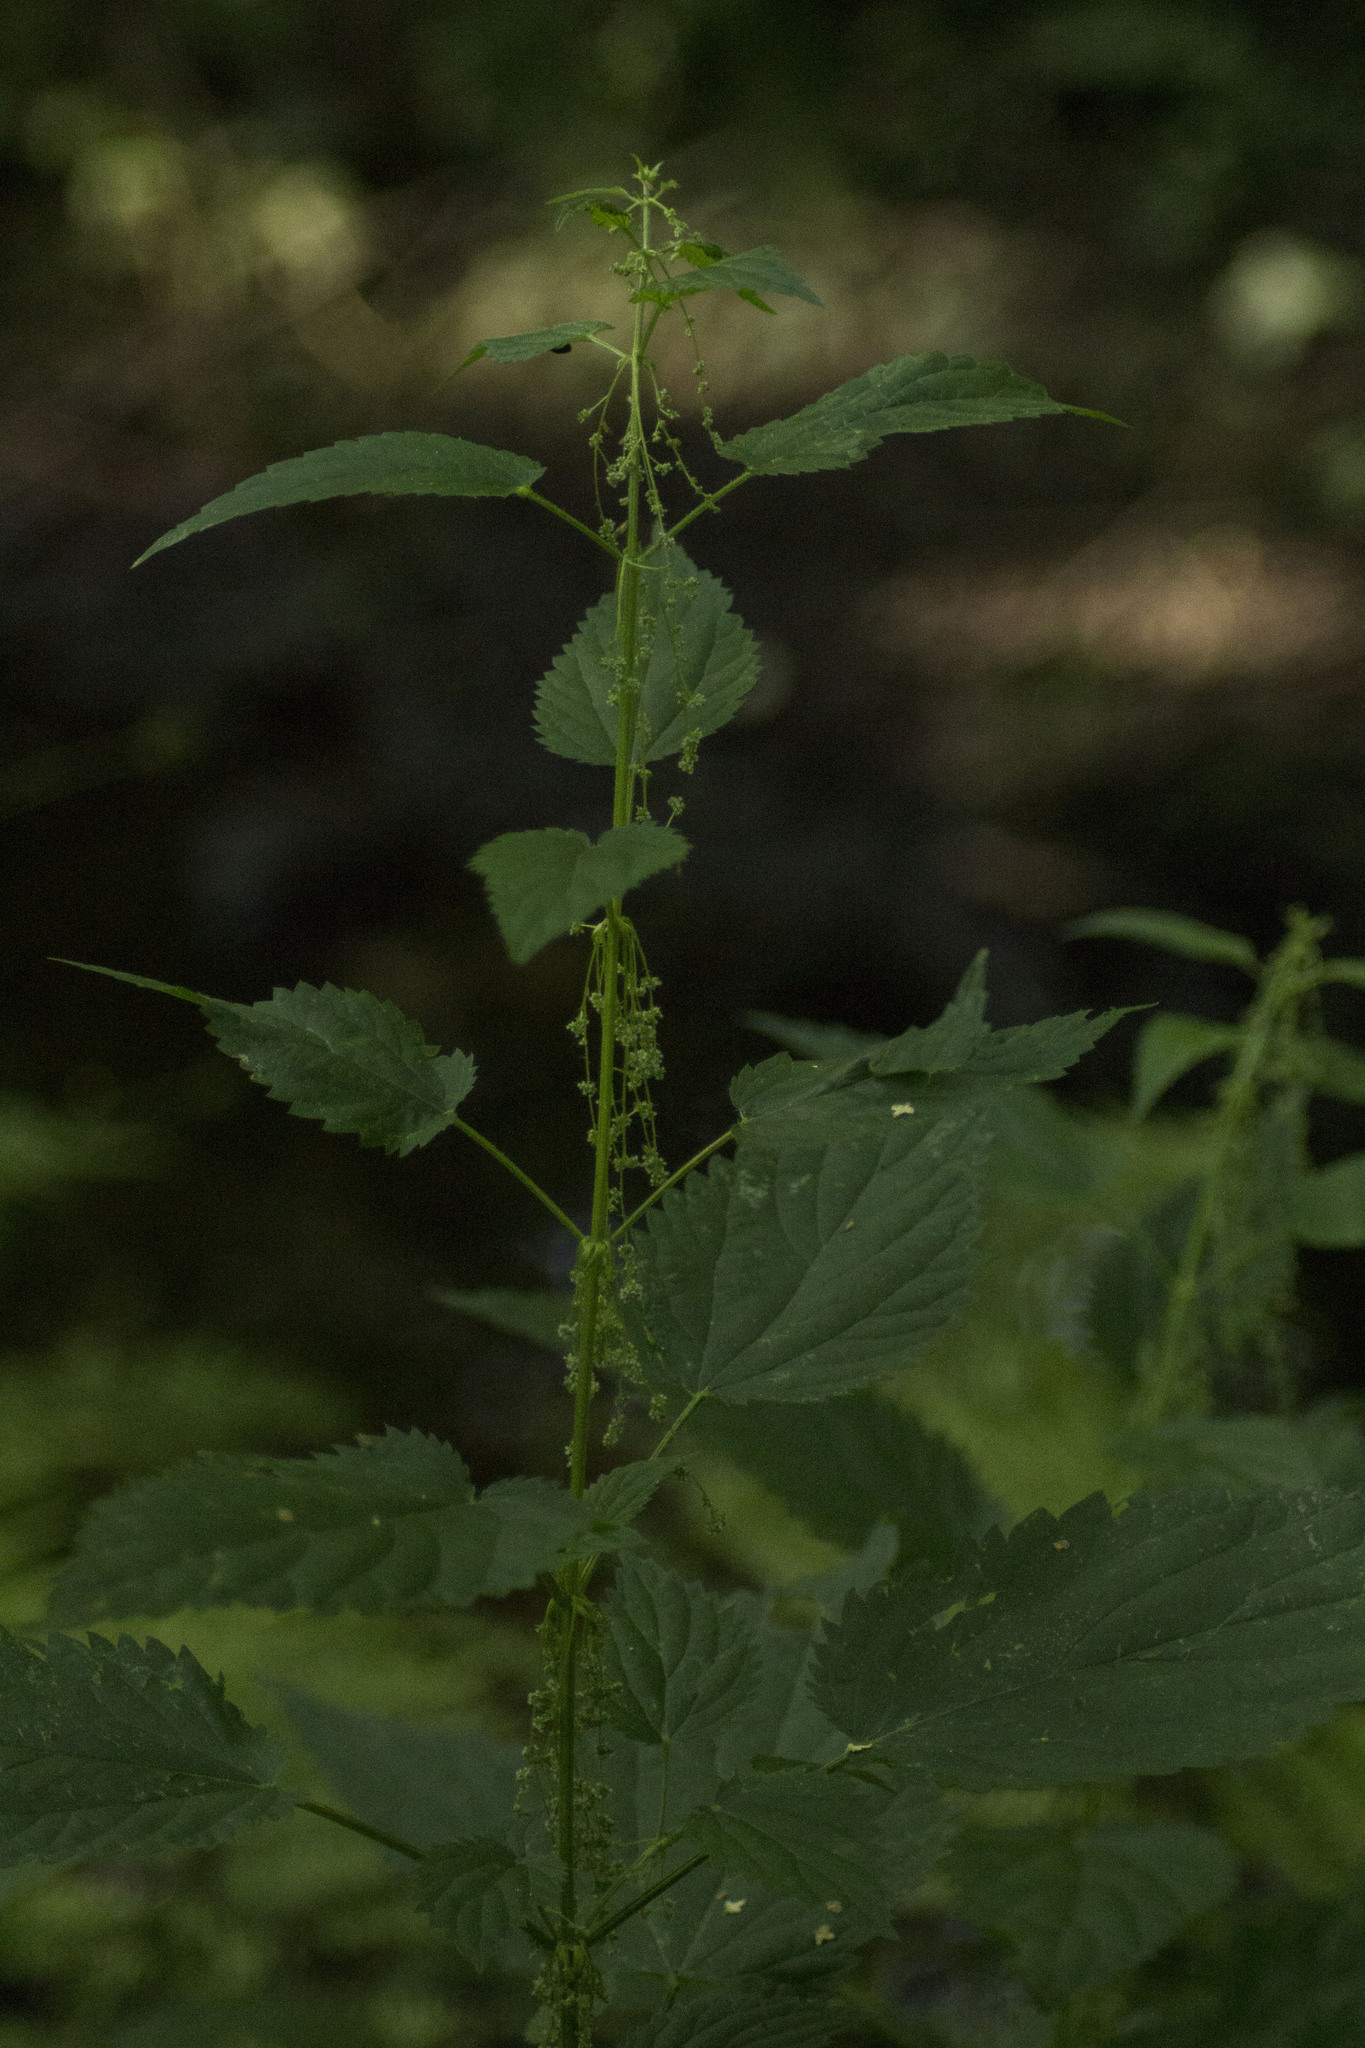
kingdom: Plantae
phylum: Tracheophyta
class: Magnoliopsida
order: Rosales
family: Urticaceae
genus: Urtica
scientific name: Urtica dioica
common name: Common nettle
